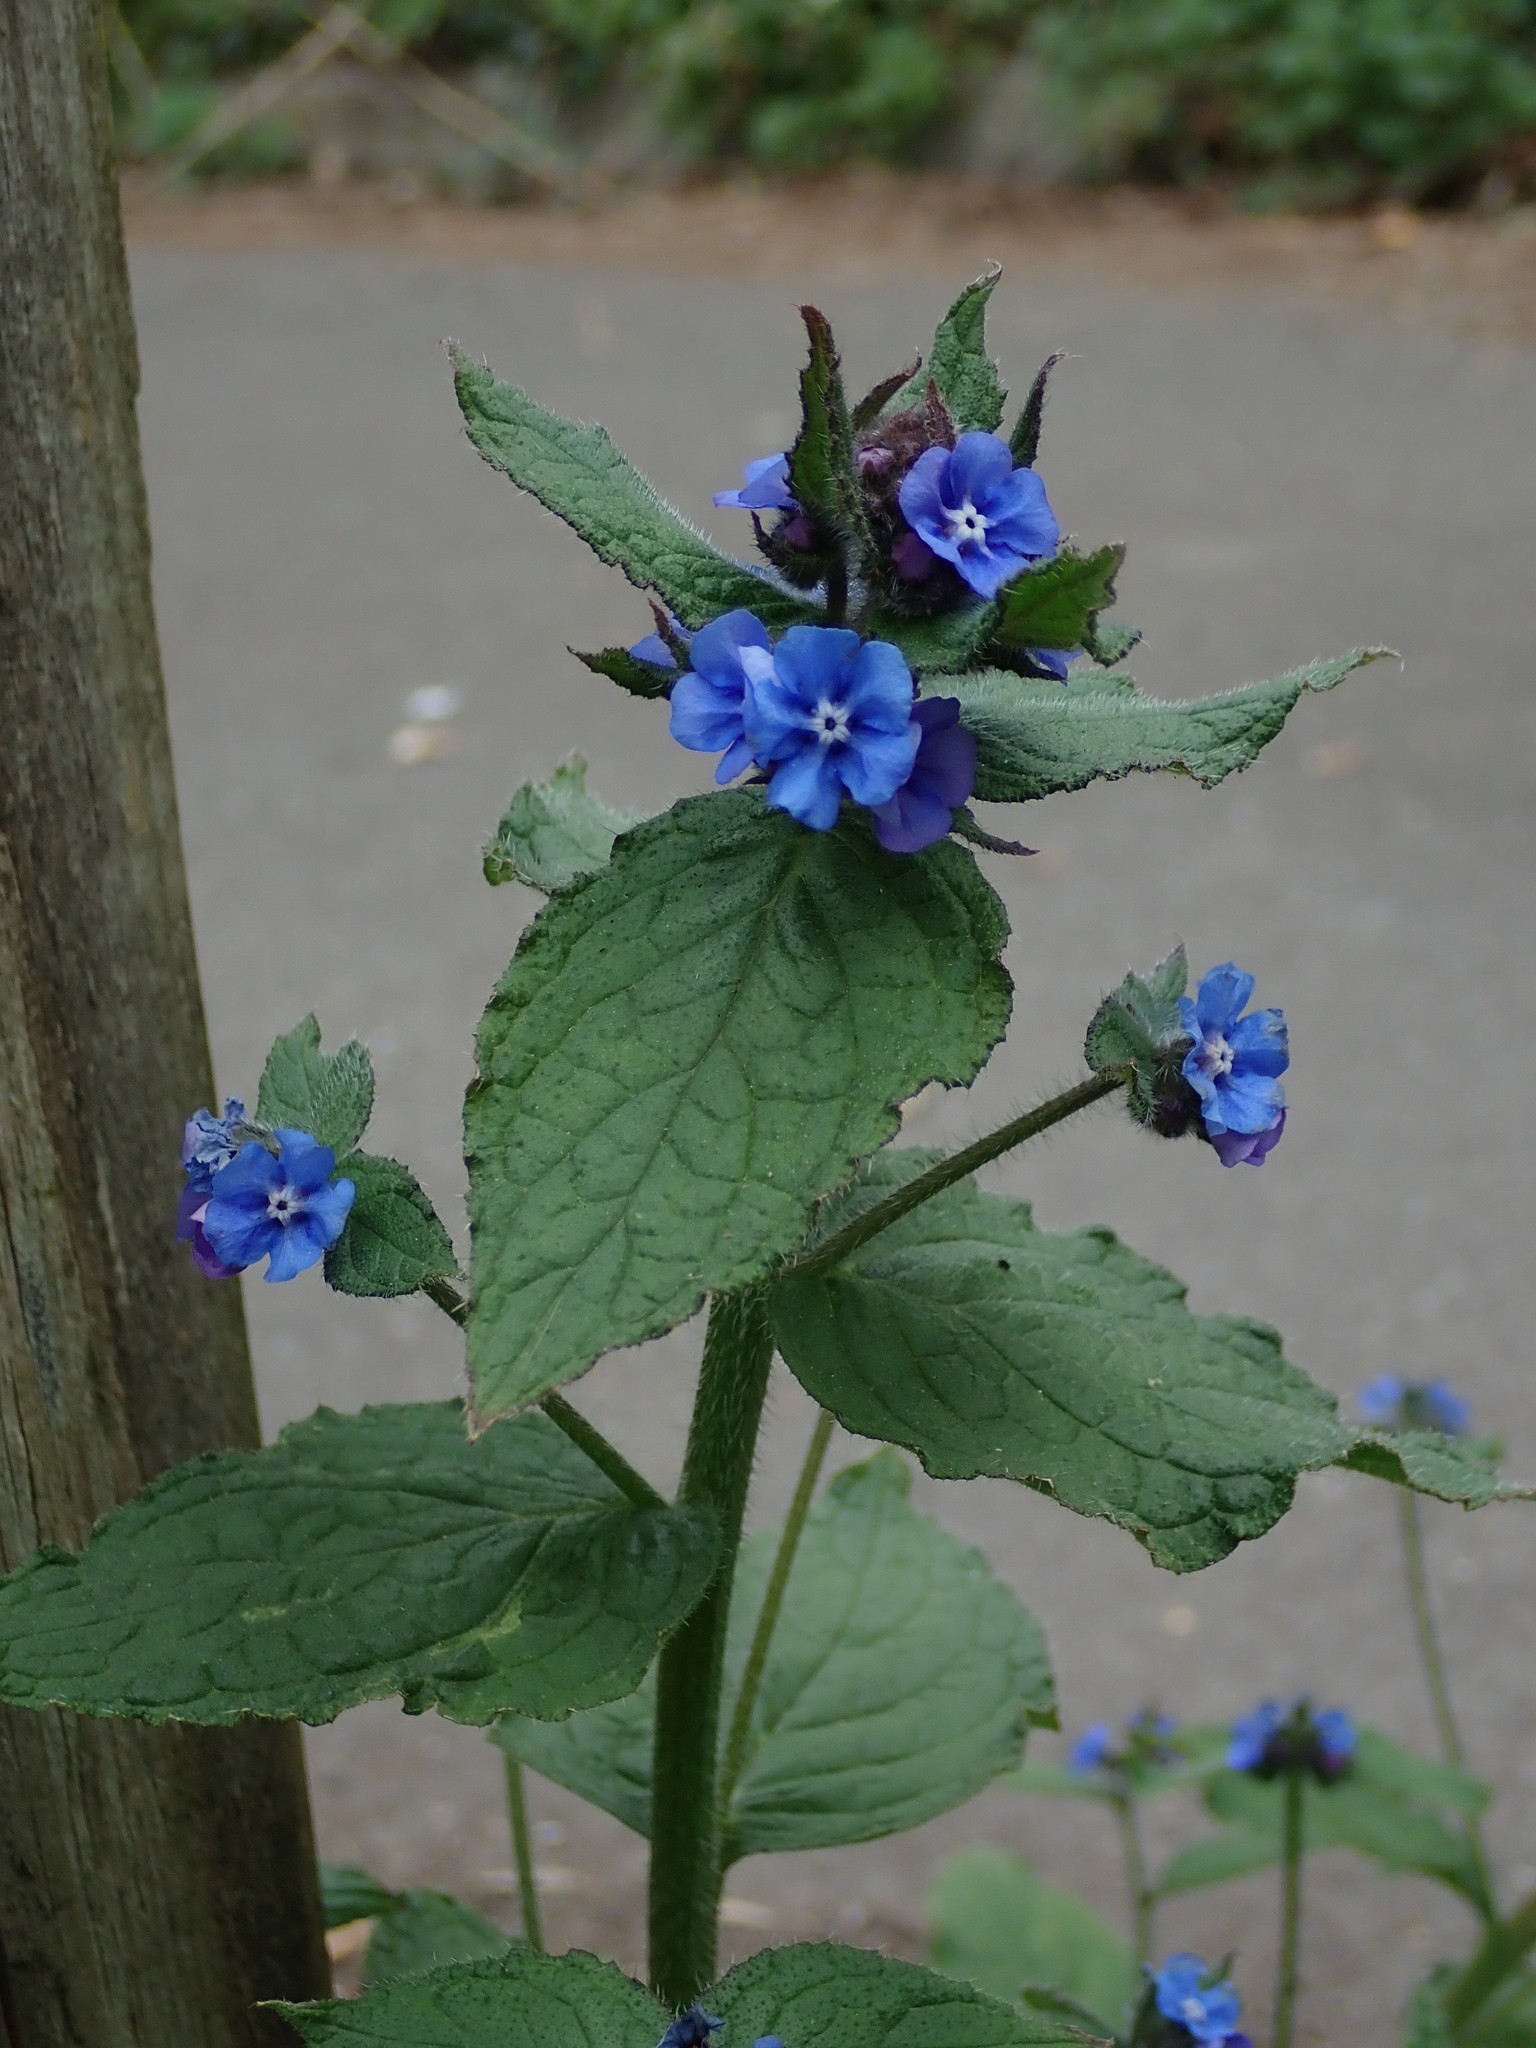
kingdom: Plantae
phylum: Tracheophyta
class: Magnoliopsida
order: Boraginales
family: Boraginaceae
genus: Pentaglottis
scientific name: Pentaglottis sempervirens
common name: Green alkanet
